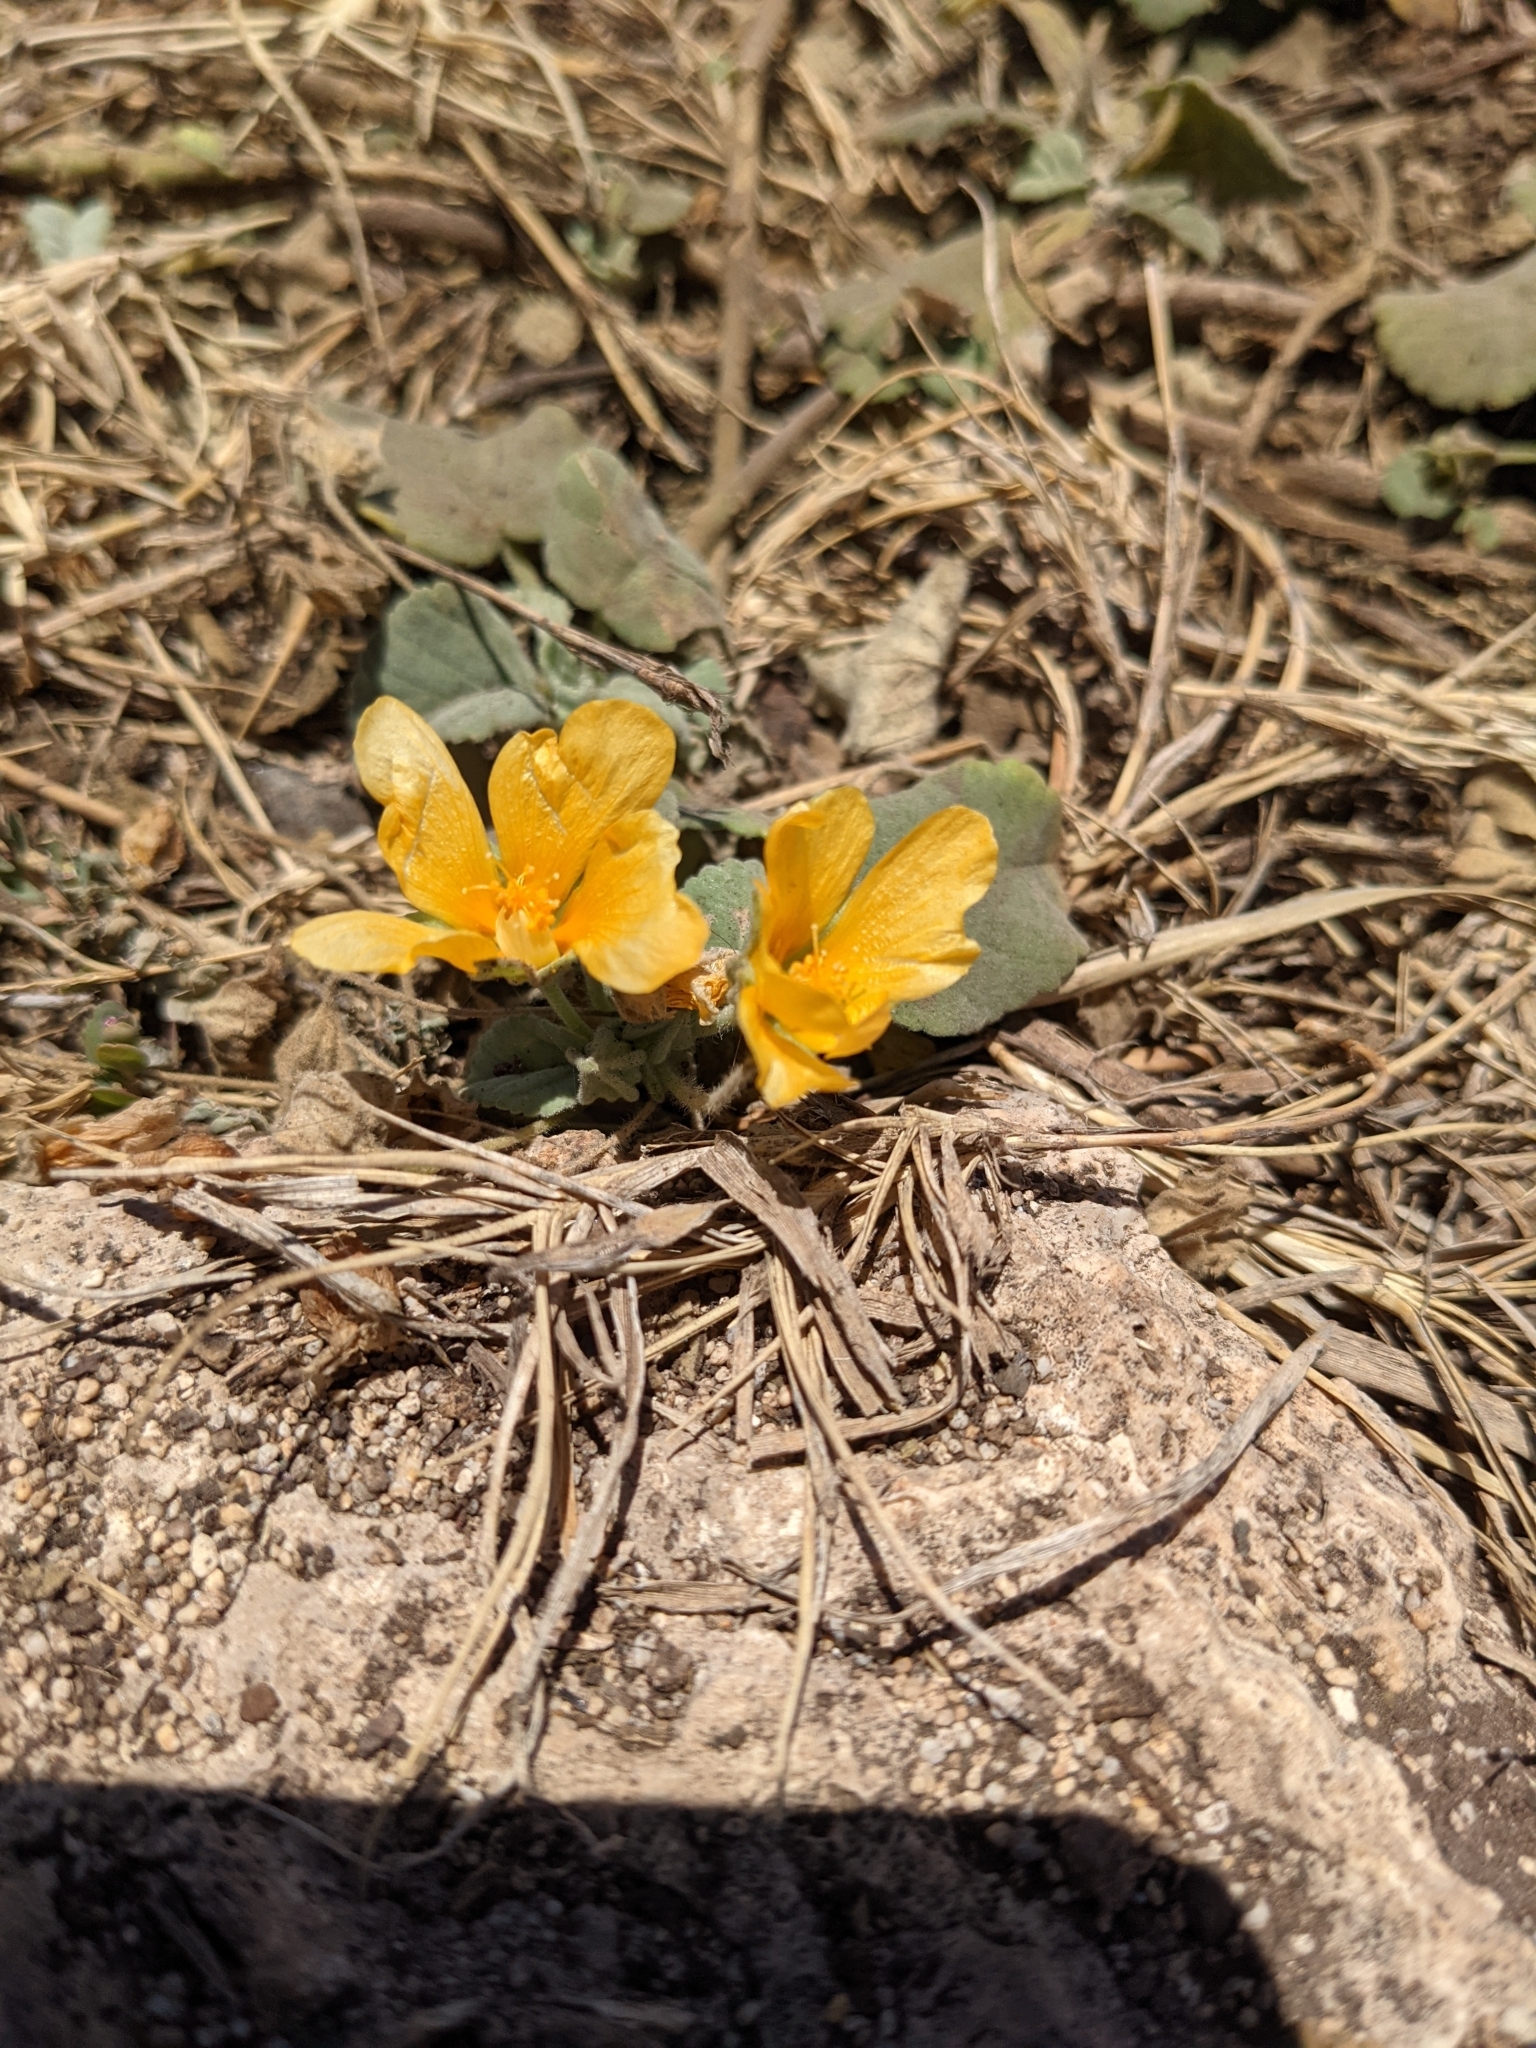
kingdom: Plantae
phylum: Tracheophyta
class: Magnoliopsida
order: Malvales
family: Malvaceae
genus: Sida
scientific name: Sida fallax
